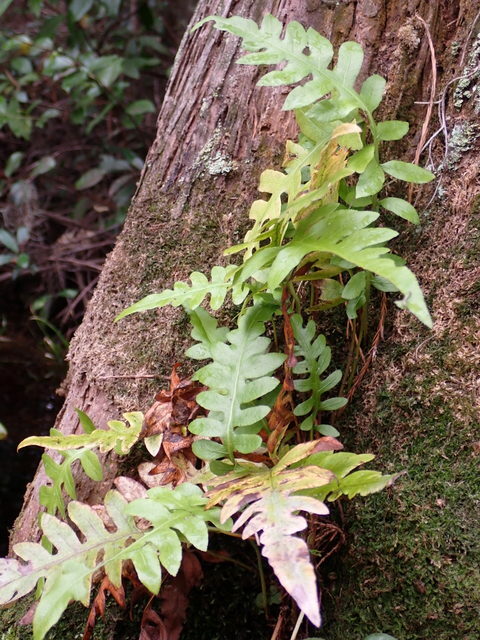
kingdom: Plantae
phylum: Tracheophyta
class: Polypodiopsida
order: Polypodiales
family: Blechnaceae
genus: Lorinseria
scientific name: Lorinseria areolata
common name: Dwarf chain fern
